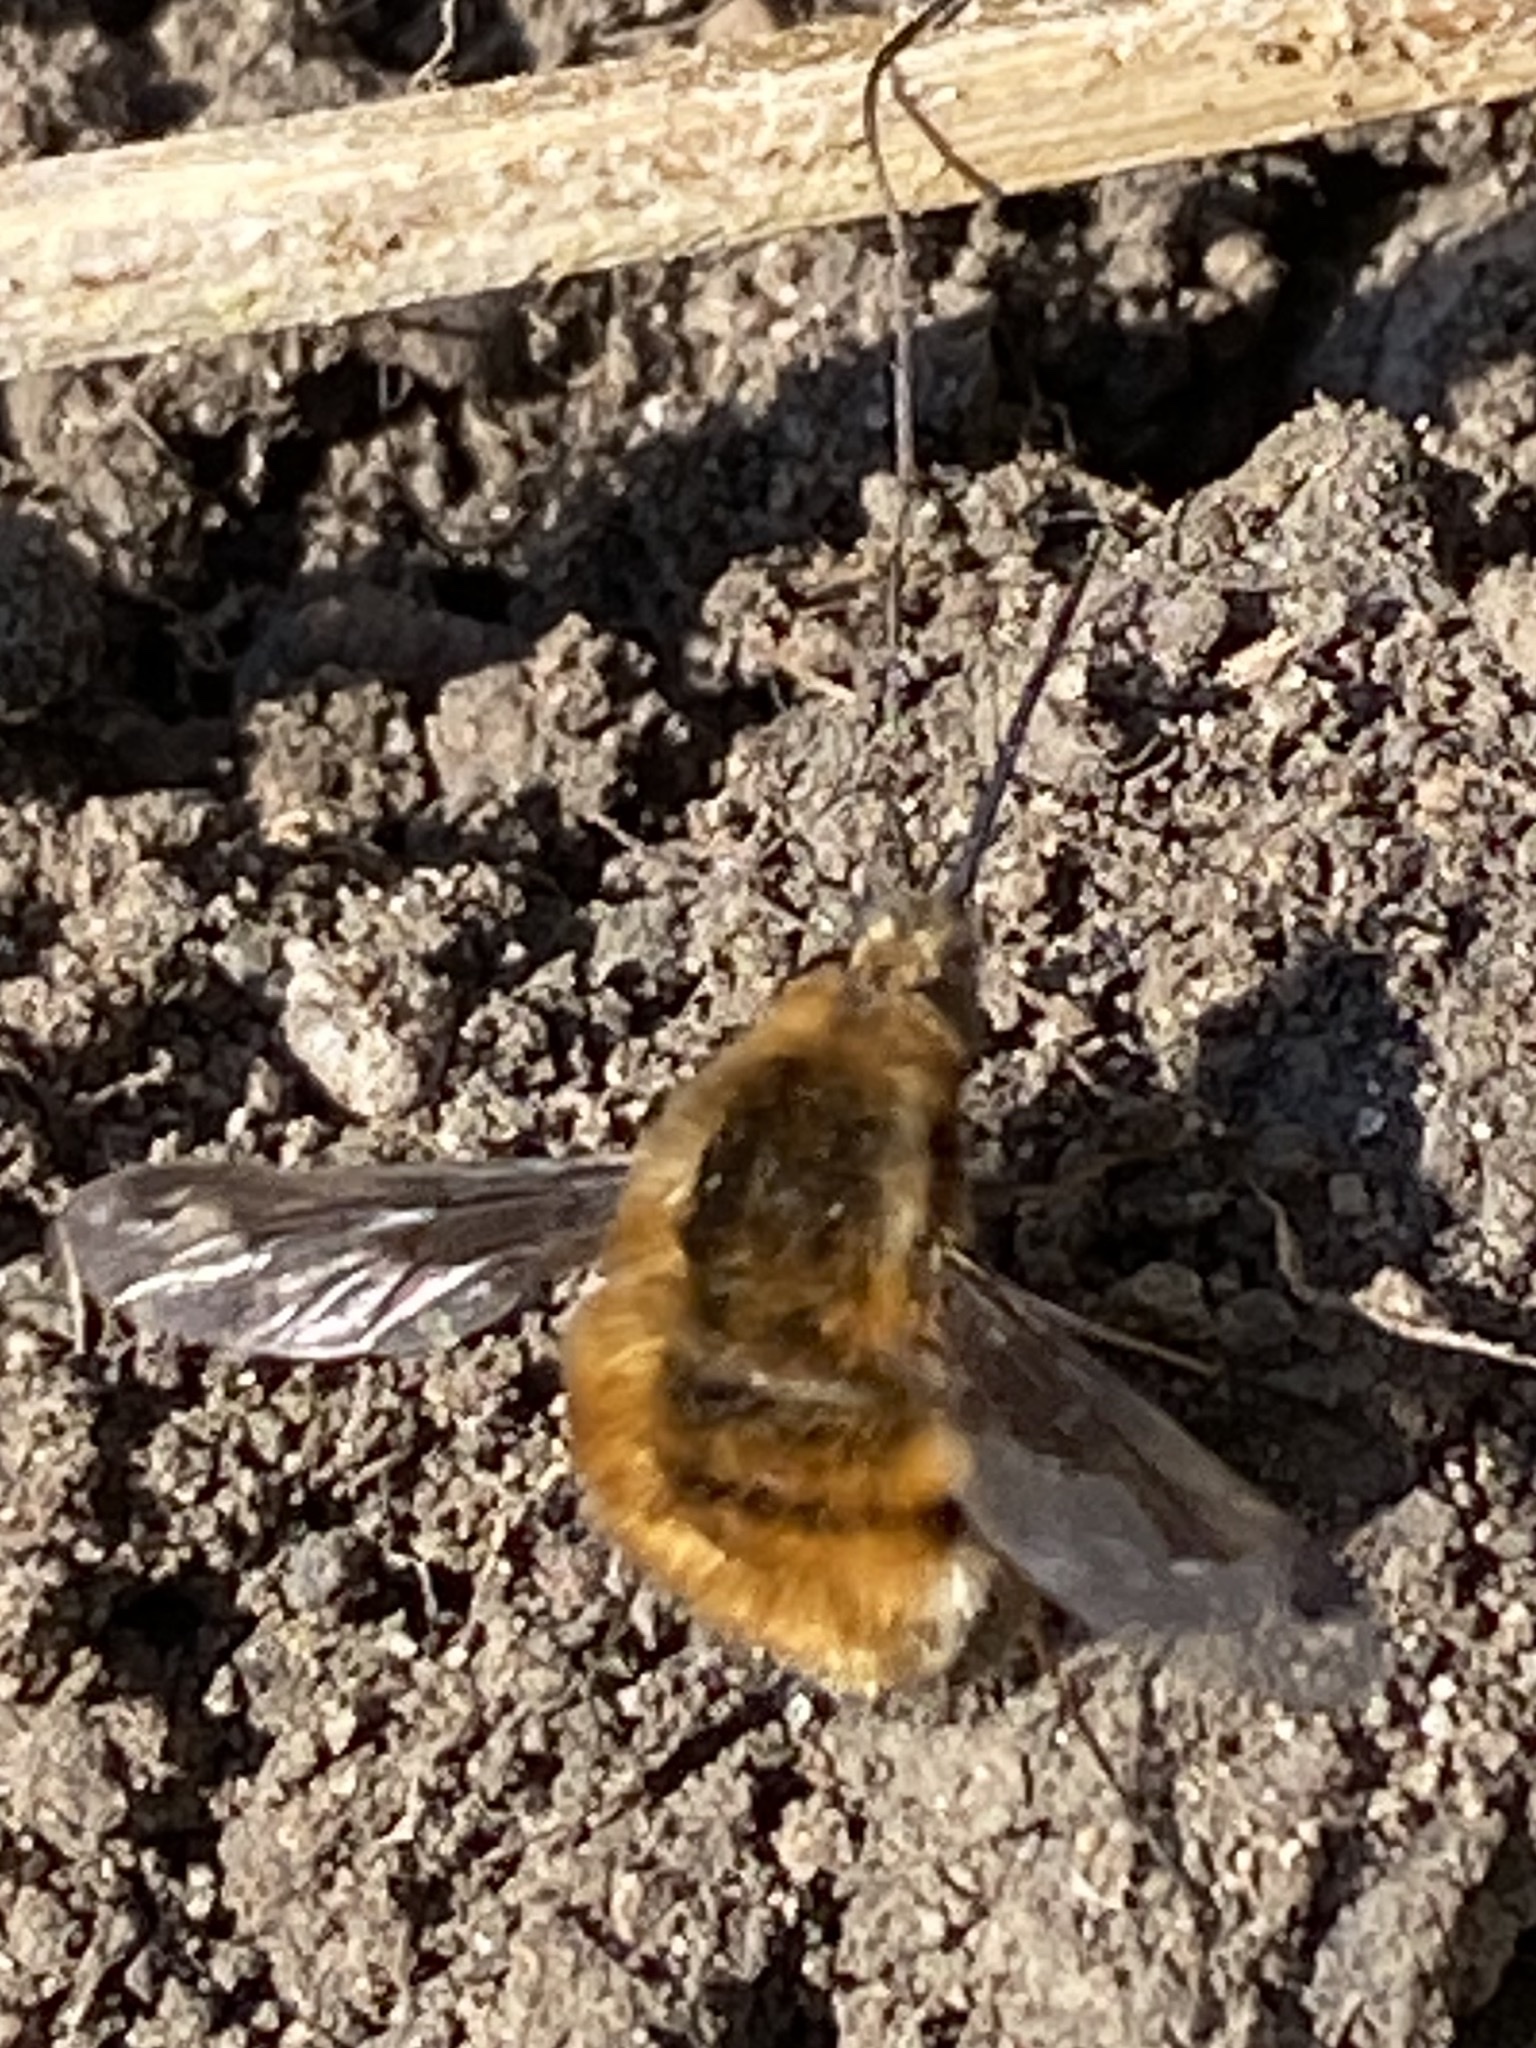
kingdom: Animalia
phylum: Arthropoda
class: Insecta
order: Diptera
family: Bombyliidae
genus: Bombylius
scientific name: Bombylius major
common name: Bee fly
